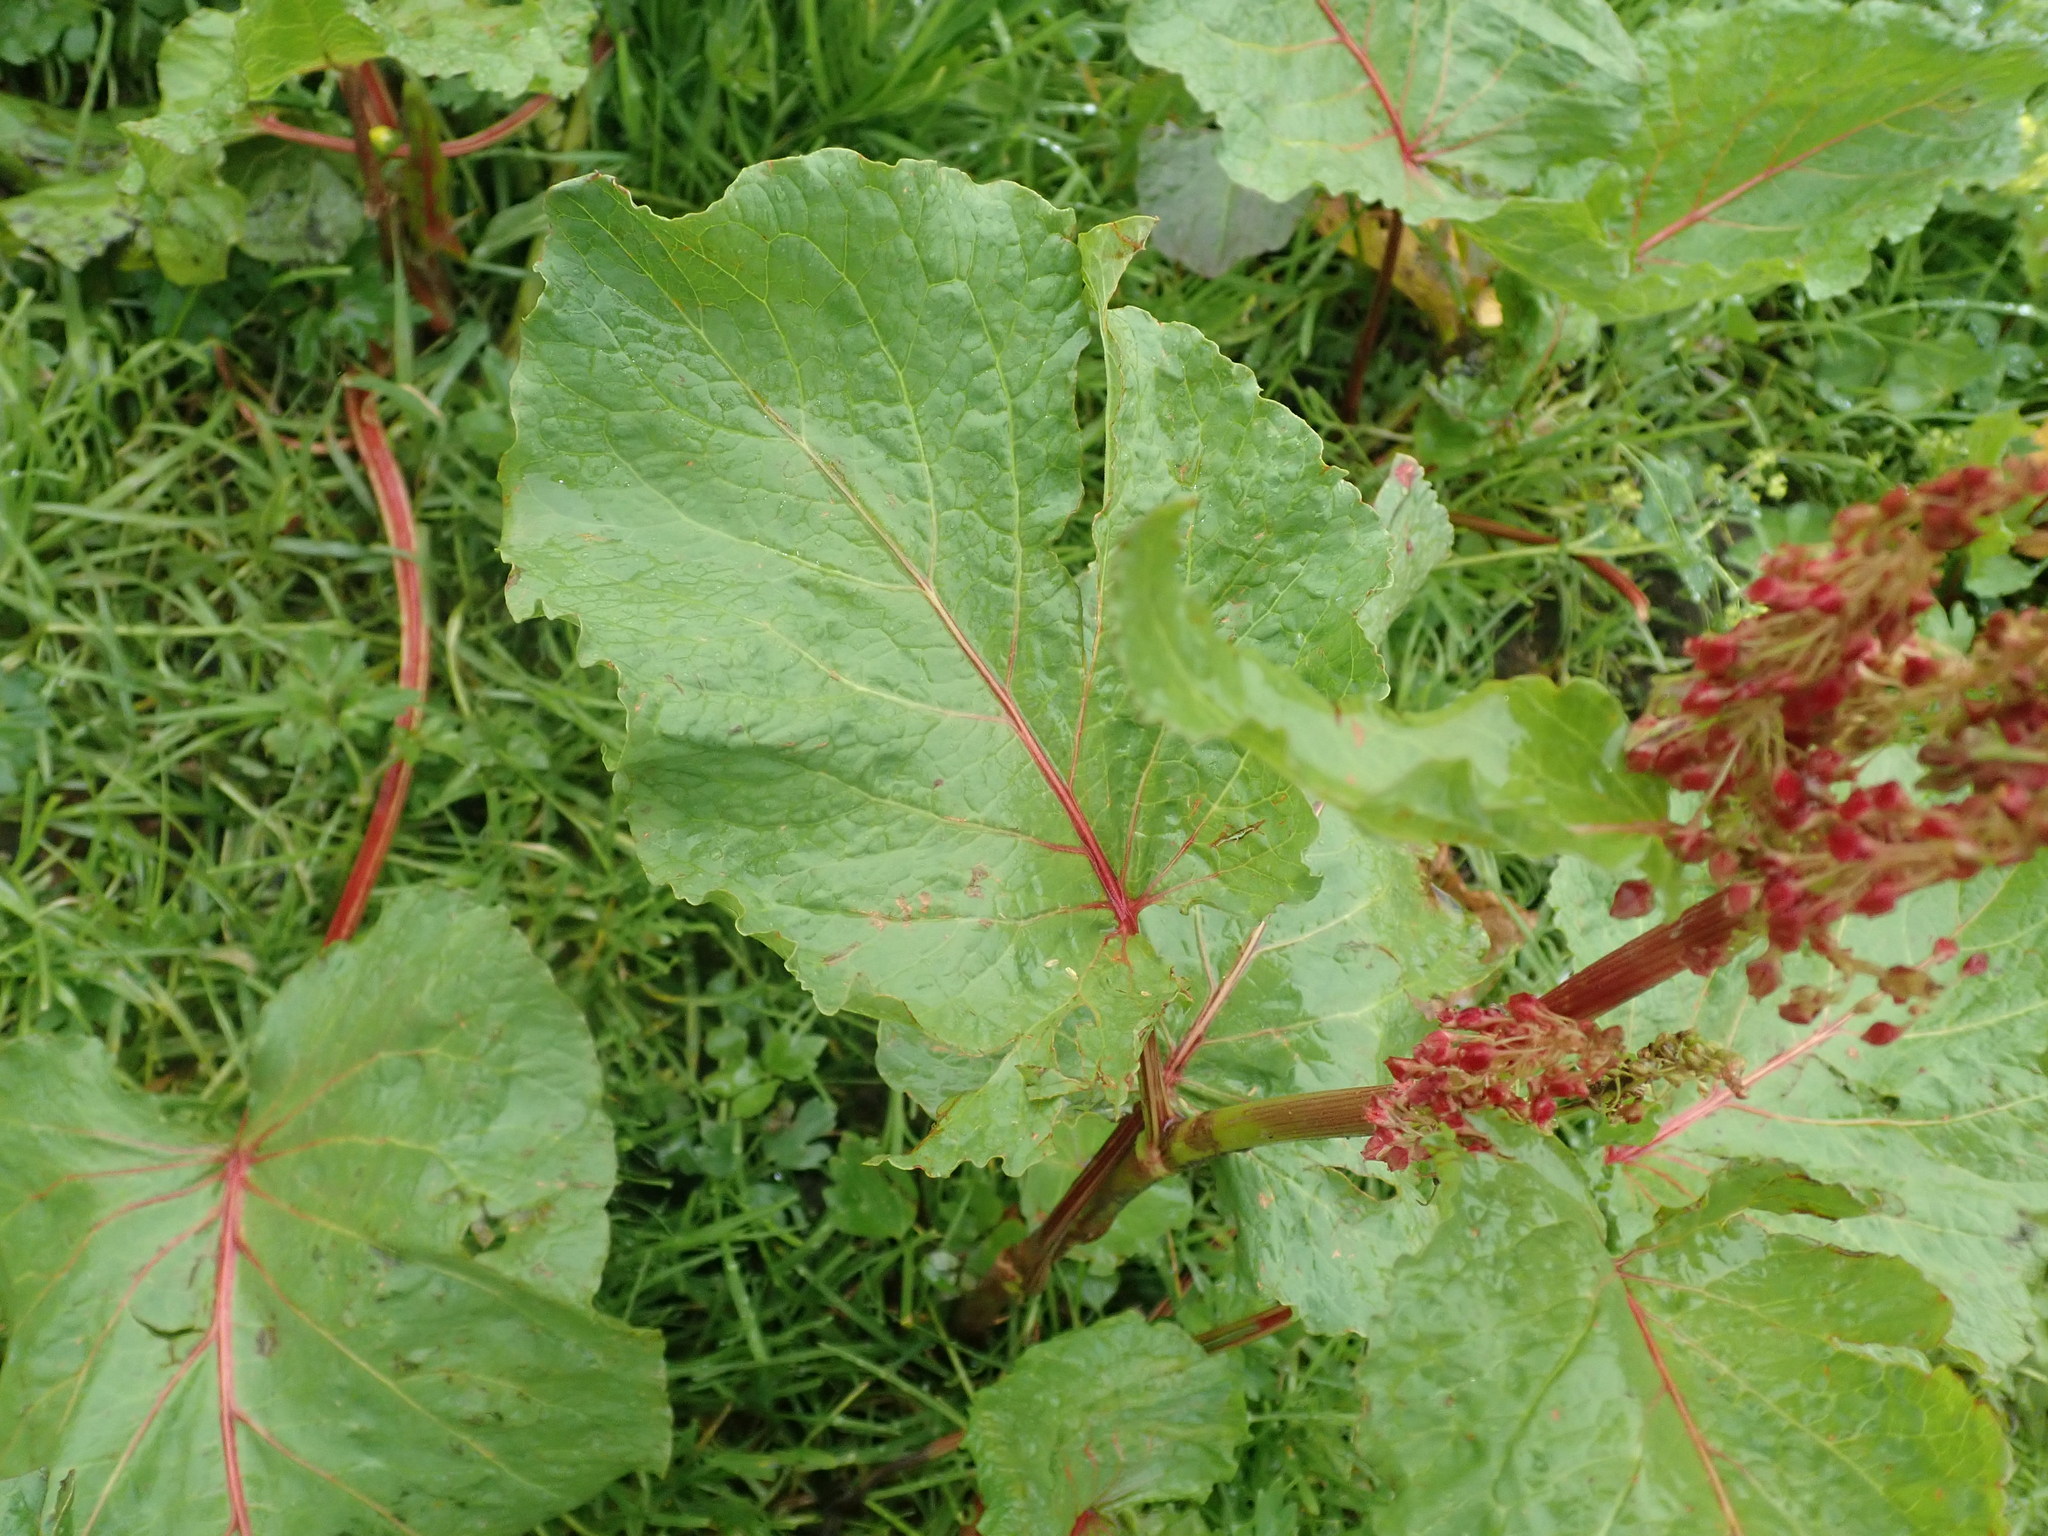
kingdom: Plantae
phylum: Tracheophyta
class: Magnoliopsida
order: Caryophyllales
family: Polygonaceae
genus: Rumex
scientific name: Rumex alpinus
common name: Alpine dock
